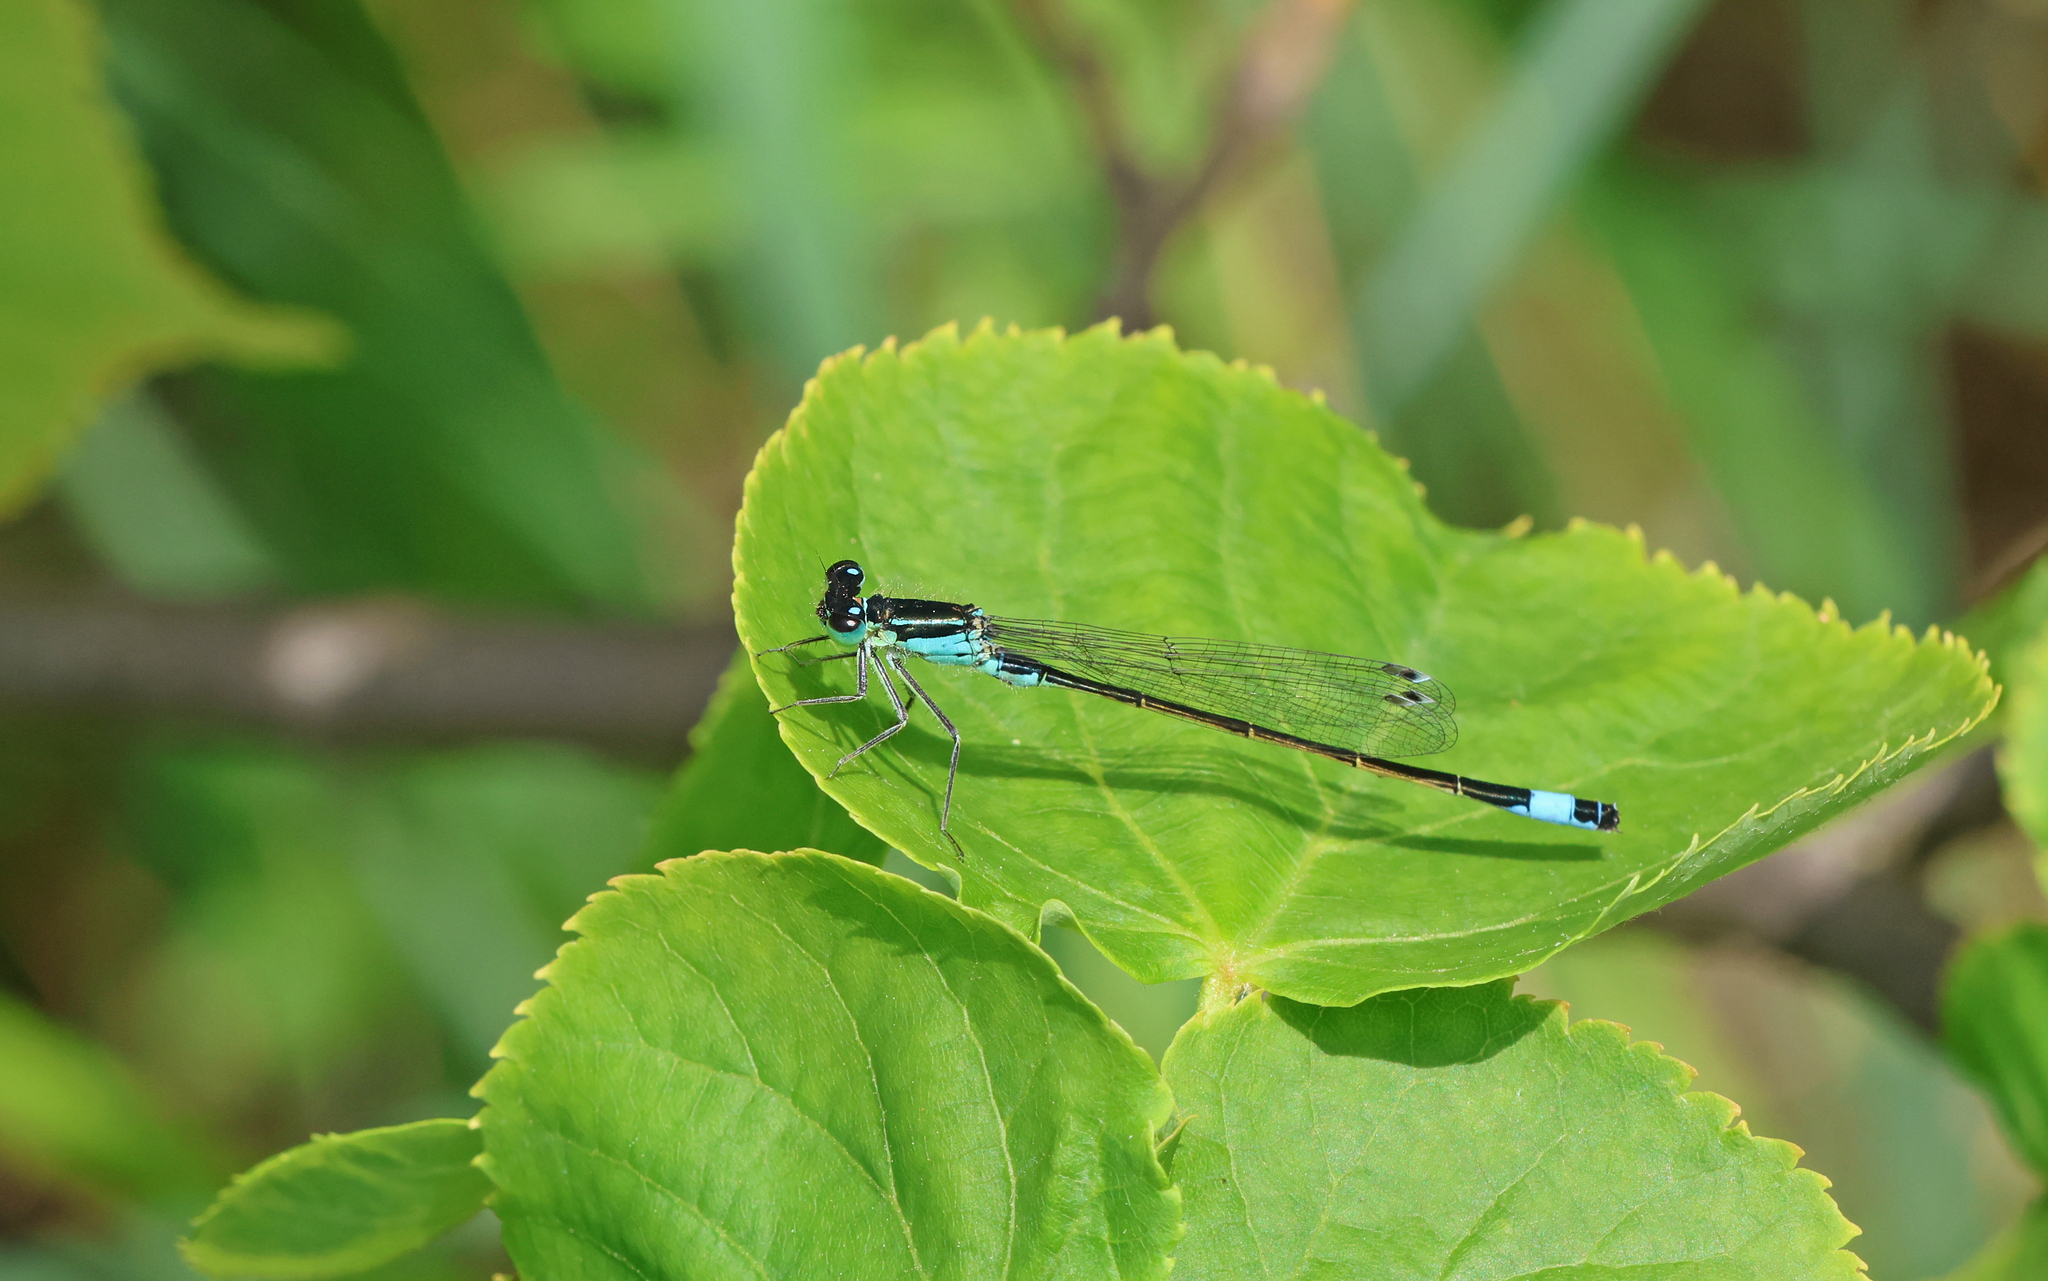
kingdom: Animalia
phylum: Arthropoda
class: Insecta
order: Odonata
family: Coenagrionidae
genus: Ischnura
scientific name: Ischnura elegans
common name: Blue-tailed damselfly
